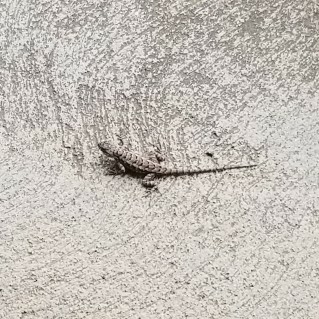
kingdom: Animalia
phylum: Chordata
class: Squamata
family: Phrynosomatidae
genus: Sceloporus
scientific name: Sceloporus occidentalis
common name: Western fence lizard
